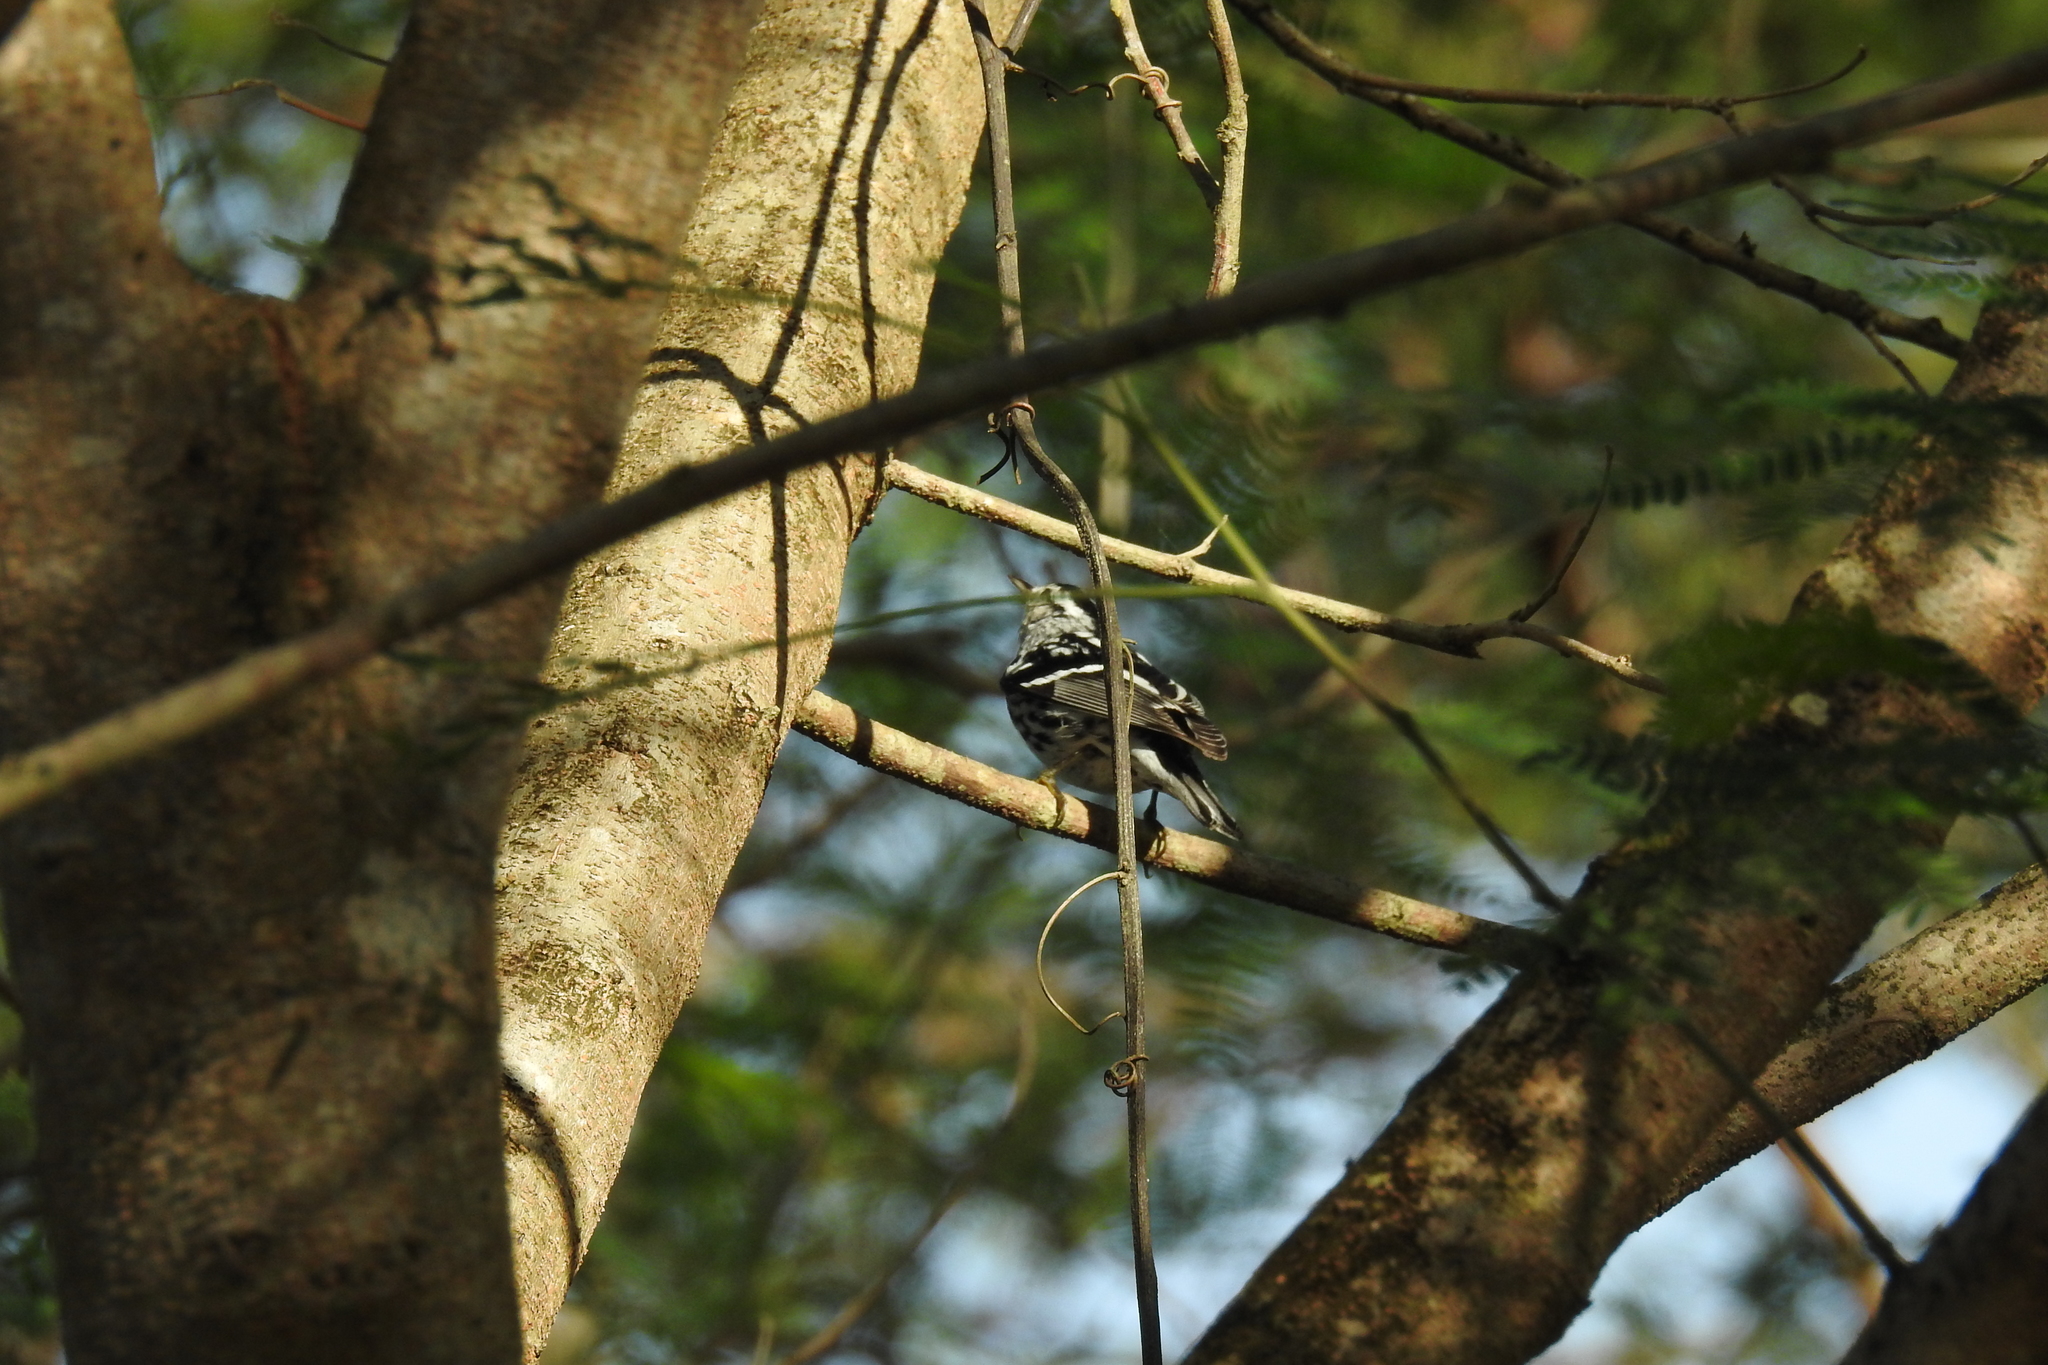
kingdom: Animalia
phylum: Chordata
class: Aves
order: Passeriformes
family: Parulidae
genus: Mniotilta
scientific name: Mniotilta varia
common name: Black-and-white warbler
